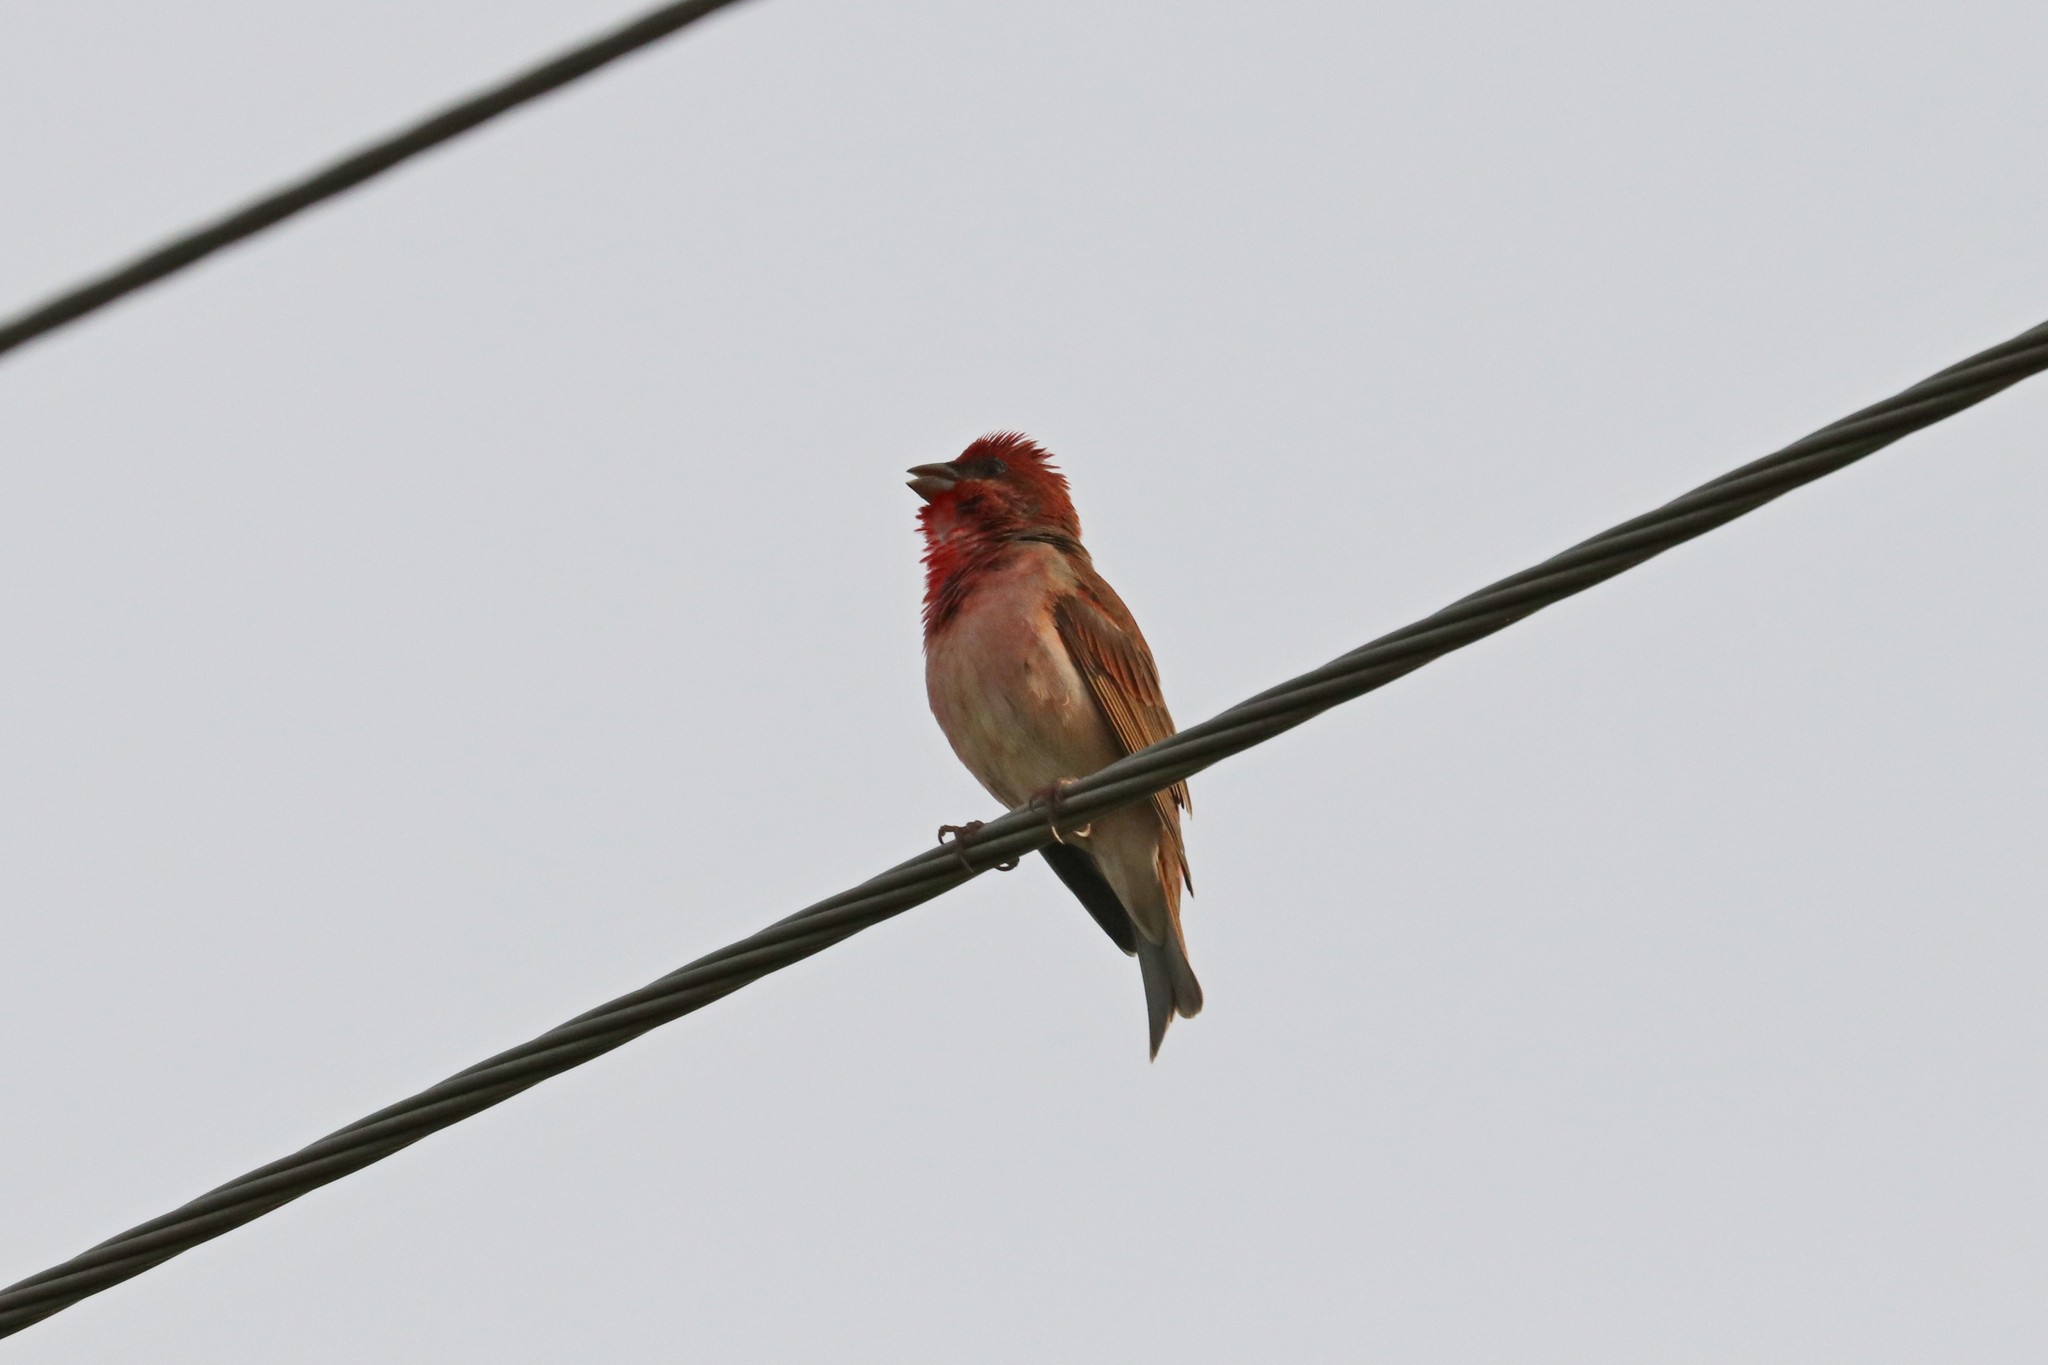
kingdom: Animalia
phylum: Chordata
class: Aves
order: Passeriformes
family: Fringillidae
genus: Carpodacus
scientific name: Carpodacus erythrinus
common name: Common rosefinch
